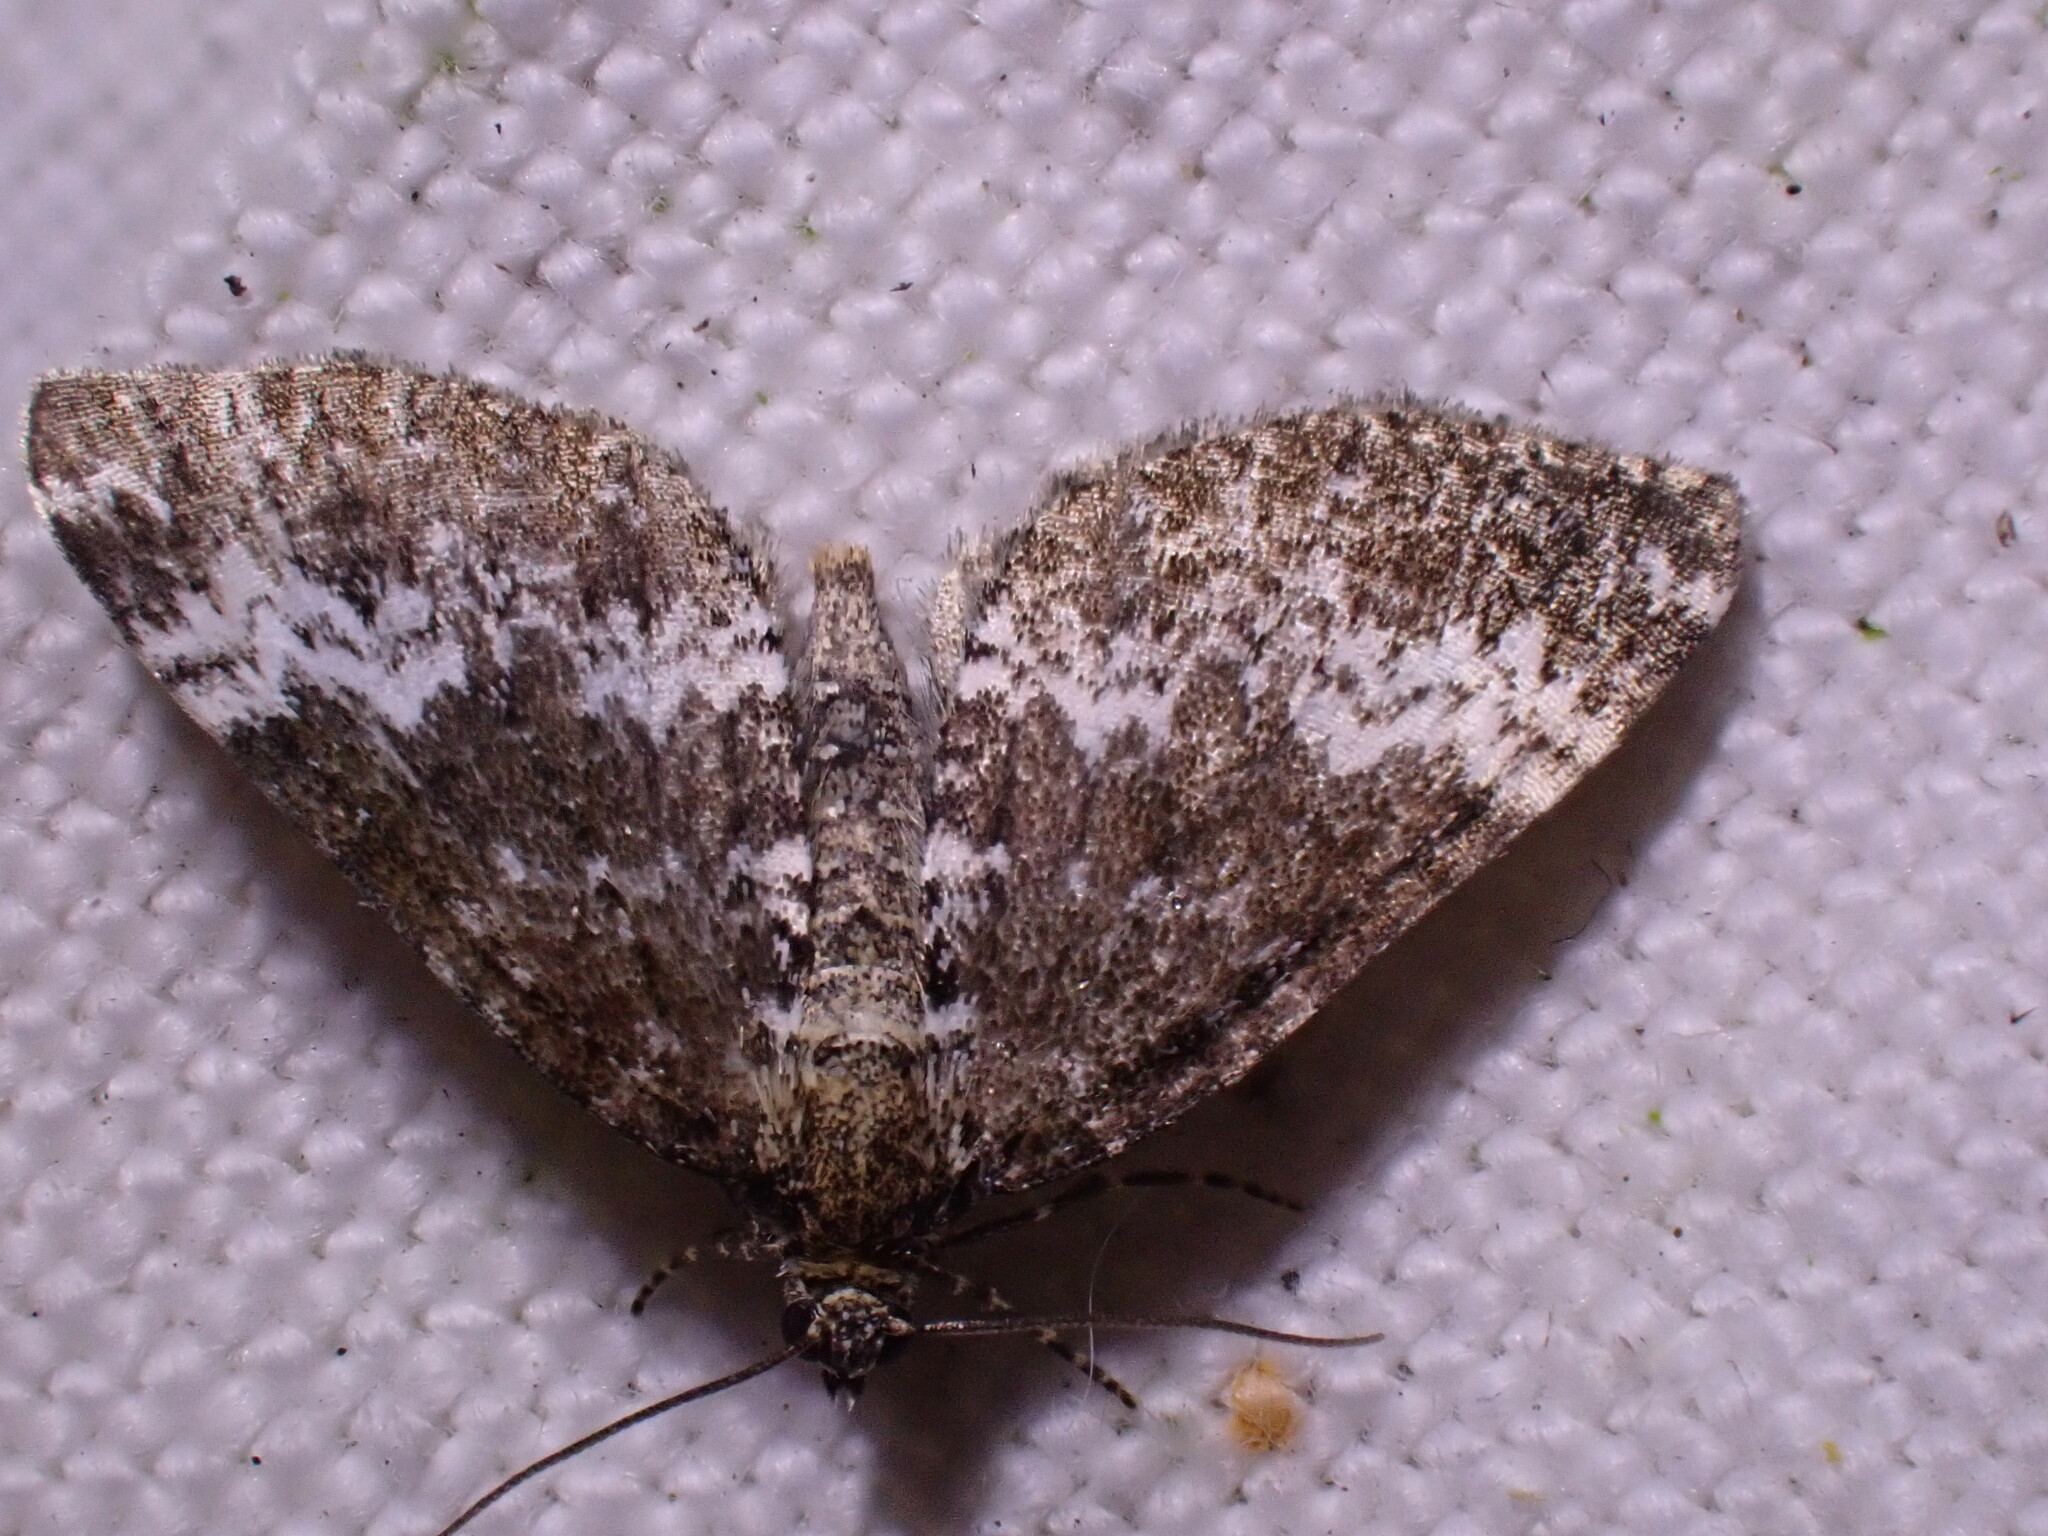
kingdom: Animalia
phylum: Arthropoda
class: Insecta
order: Lepidoptera
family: Geometridae
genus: Perizoma
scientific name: Perizoma alchemillata
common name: Small rivulet
